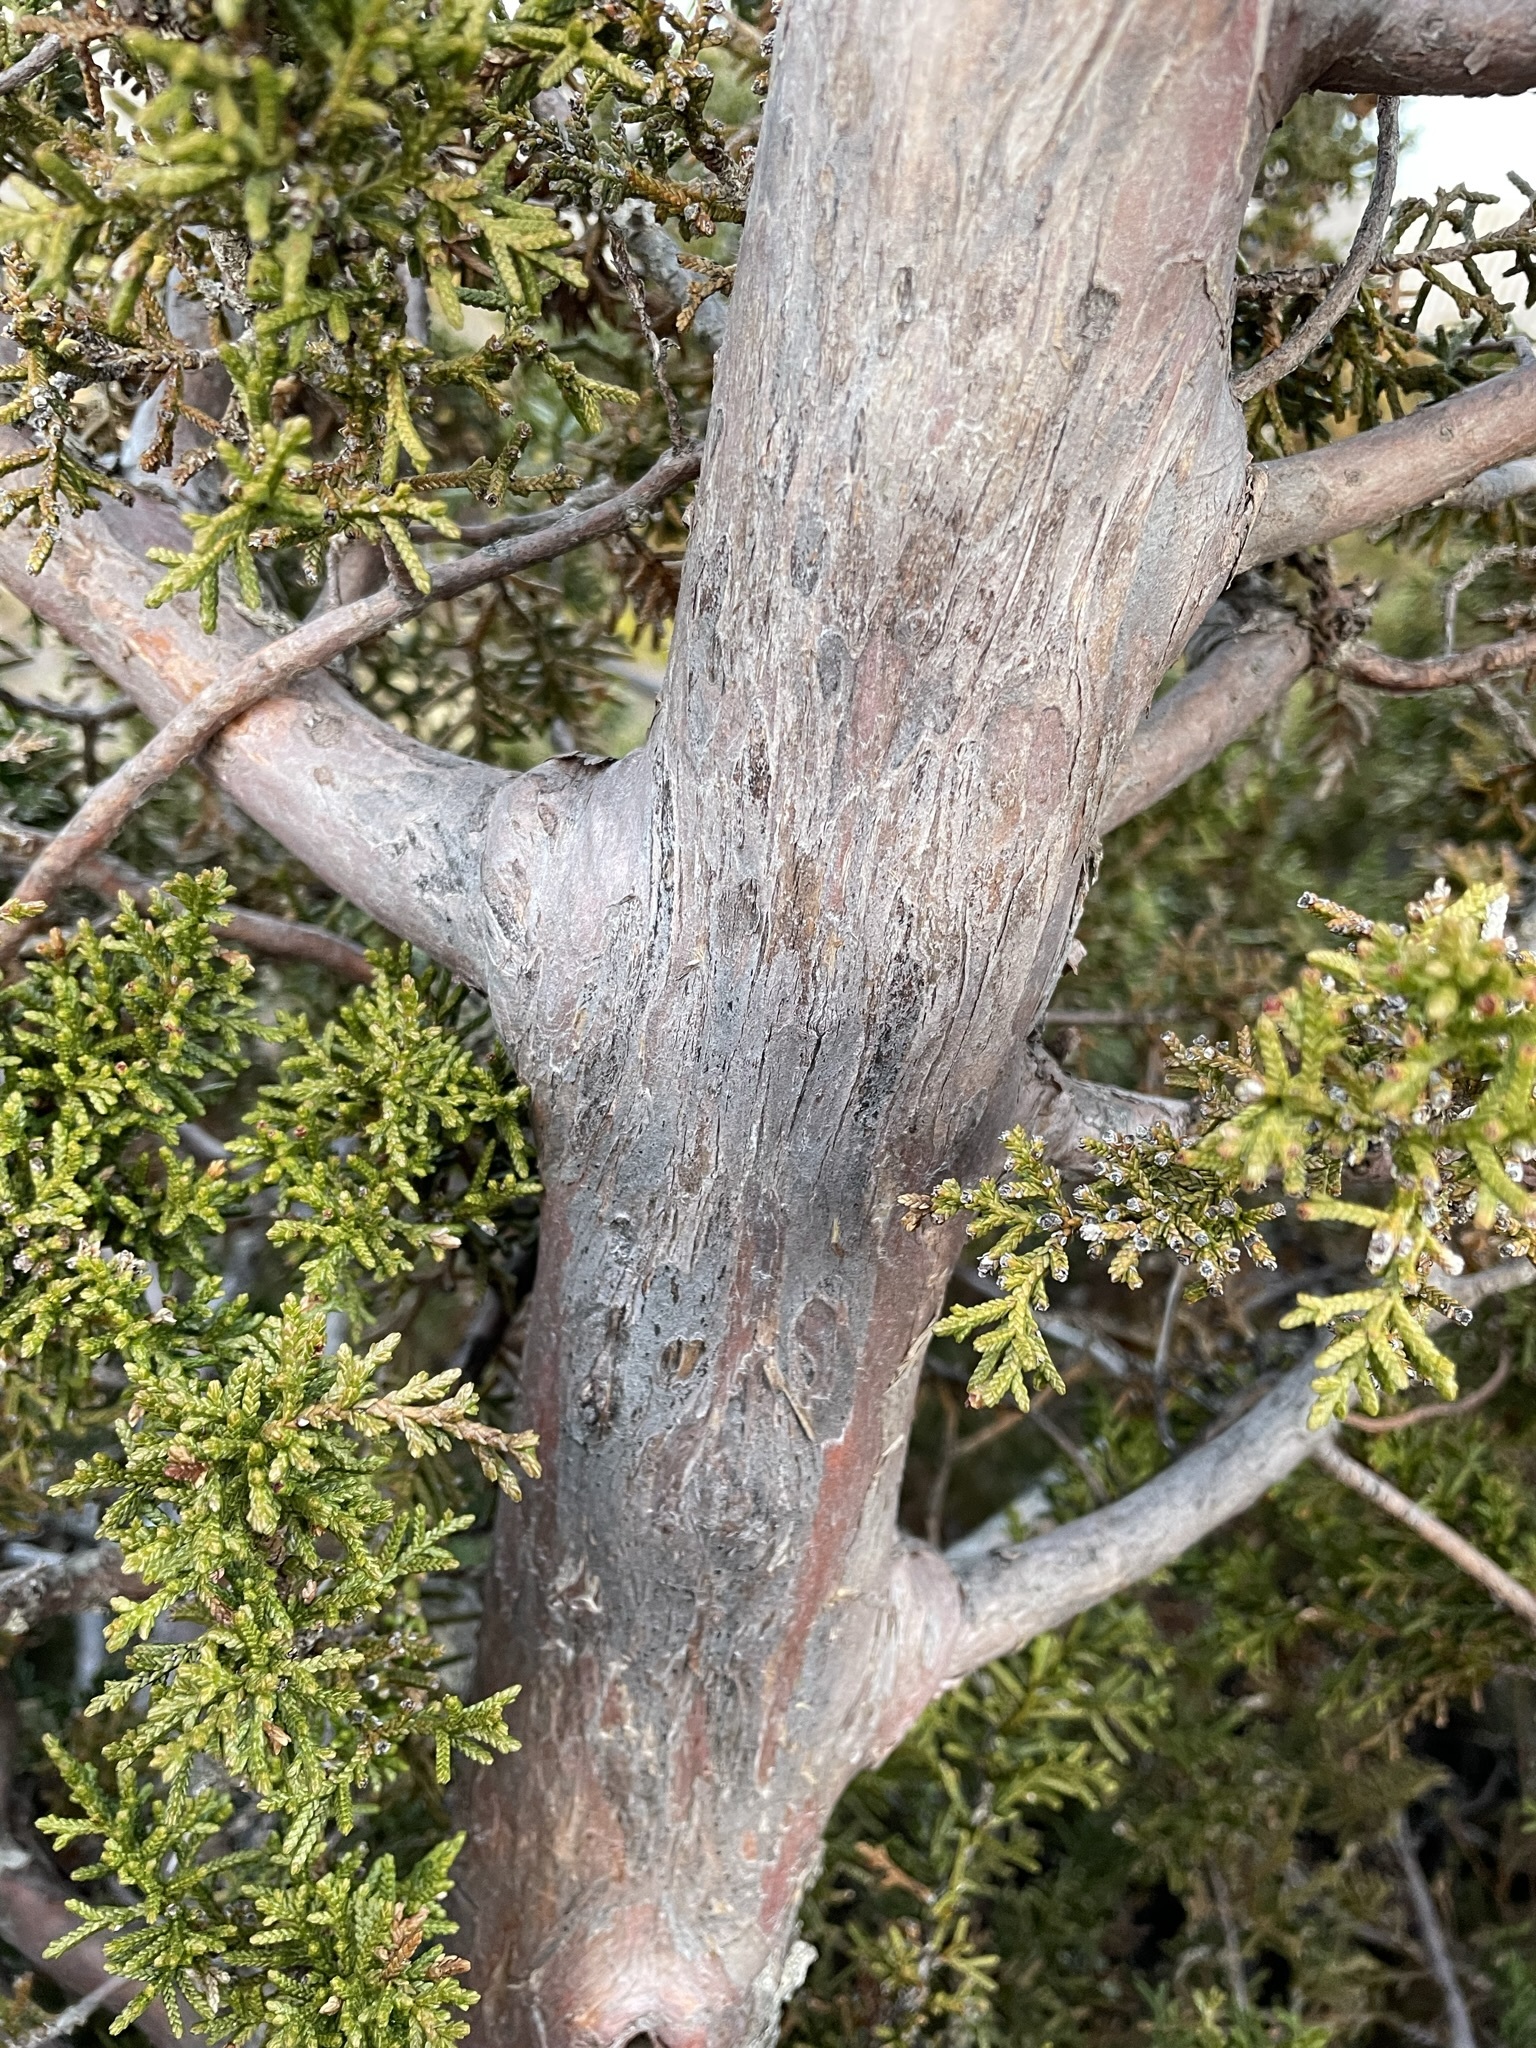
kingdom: Plantae
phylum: Tracheophyta
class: Pinopsida
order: Pinales
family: Cupressaceae
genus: Diselma
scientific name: Diselma archeri
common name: Cheshunt pine
